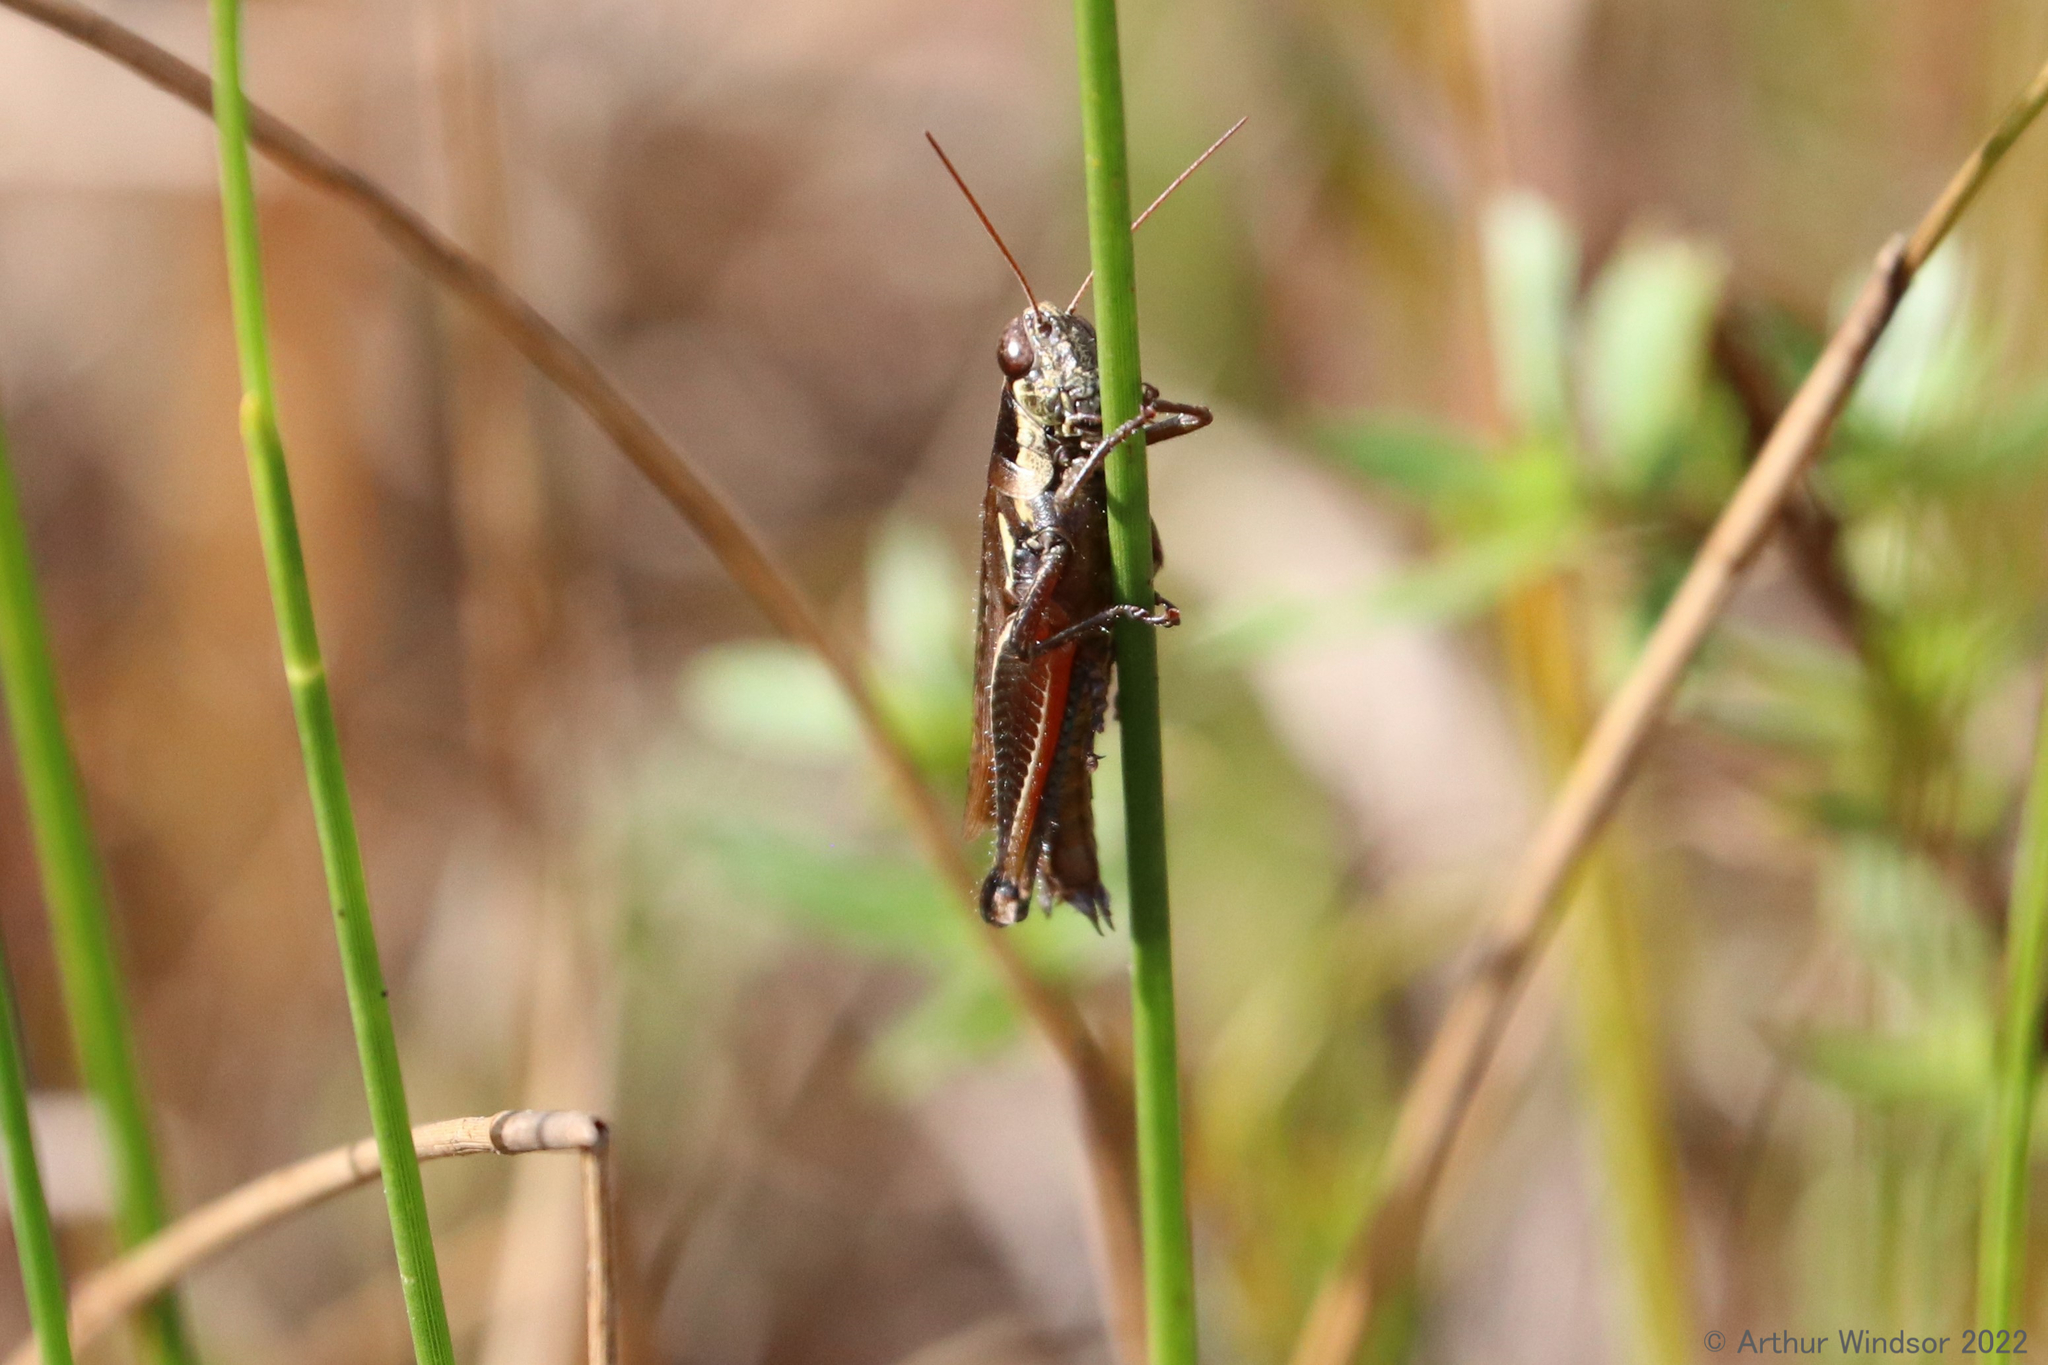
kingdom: Animalia
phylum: Arthropoda
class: Insecta
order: Orthoptera
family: Acrididae
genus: Paroxya
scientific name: Paroxya atlantica
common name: Atlantic grasshopper
